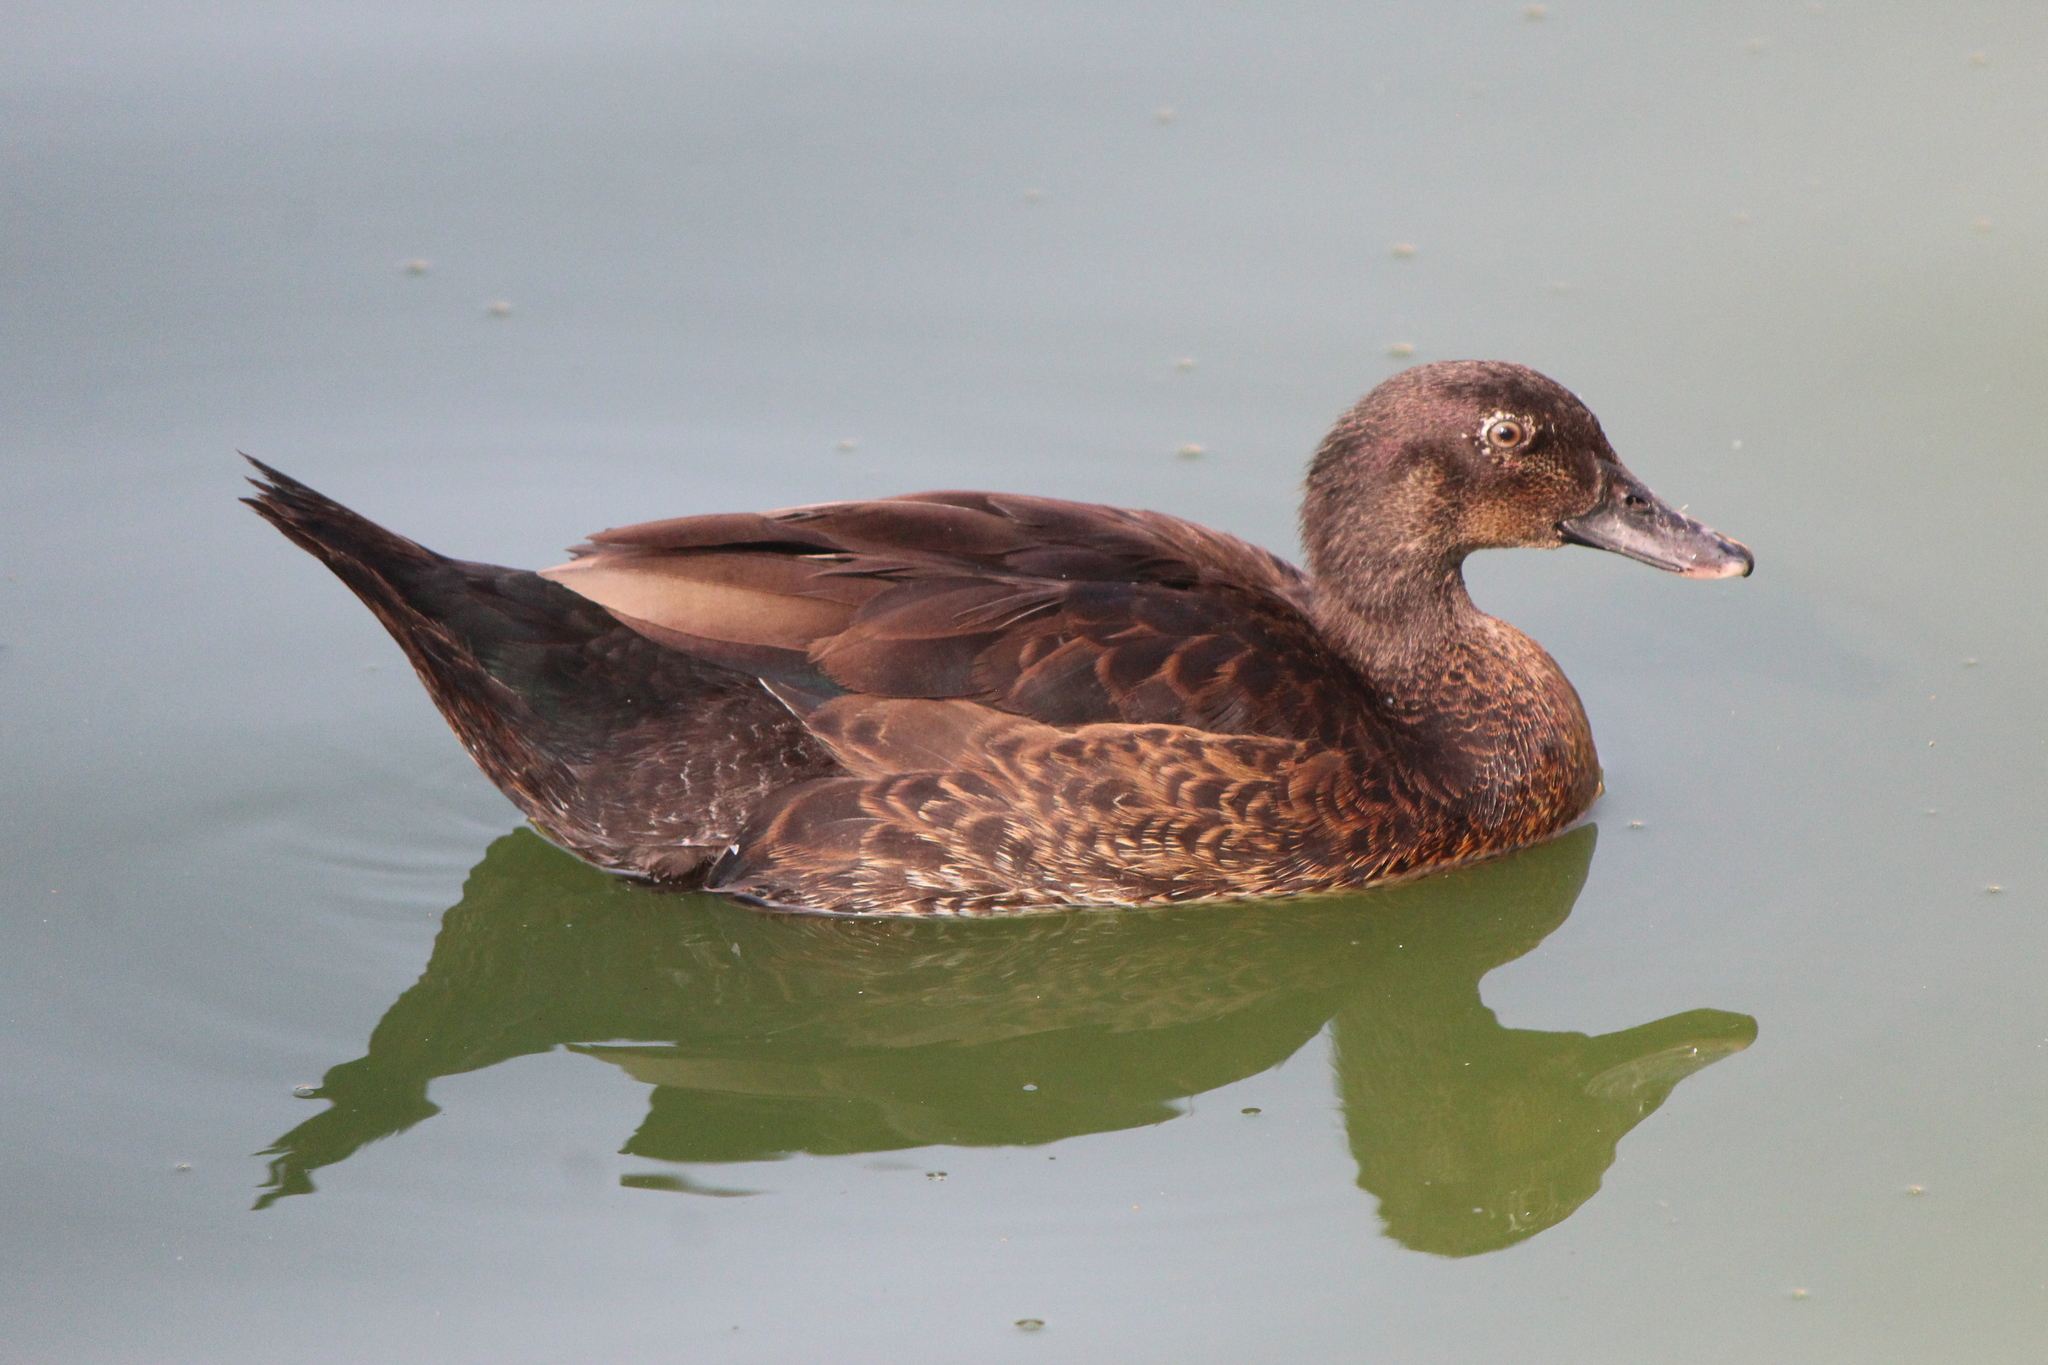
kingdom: Animalia
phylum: Chordata
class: Aves
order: Anseriformes
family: Anatidae
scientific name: Anatidae
